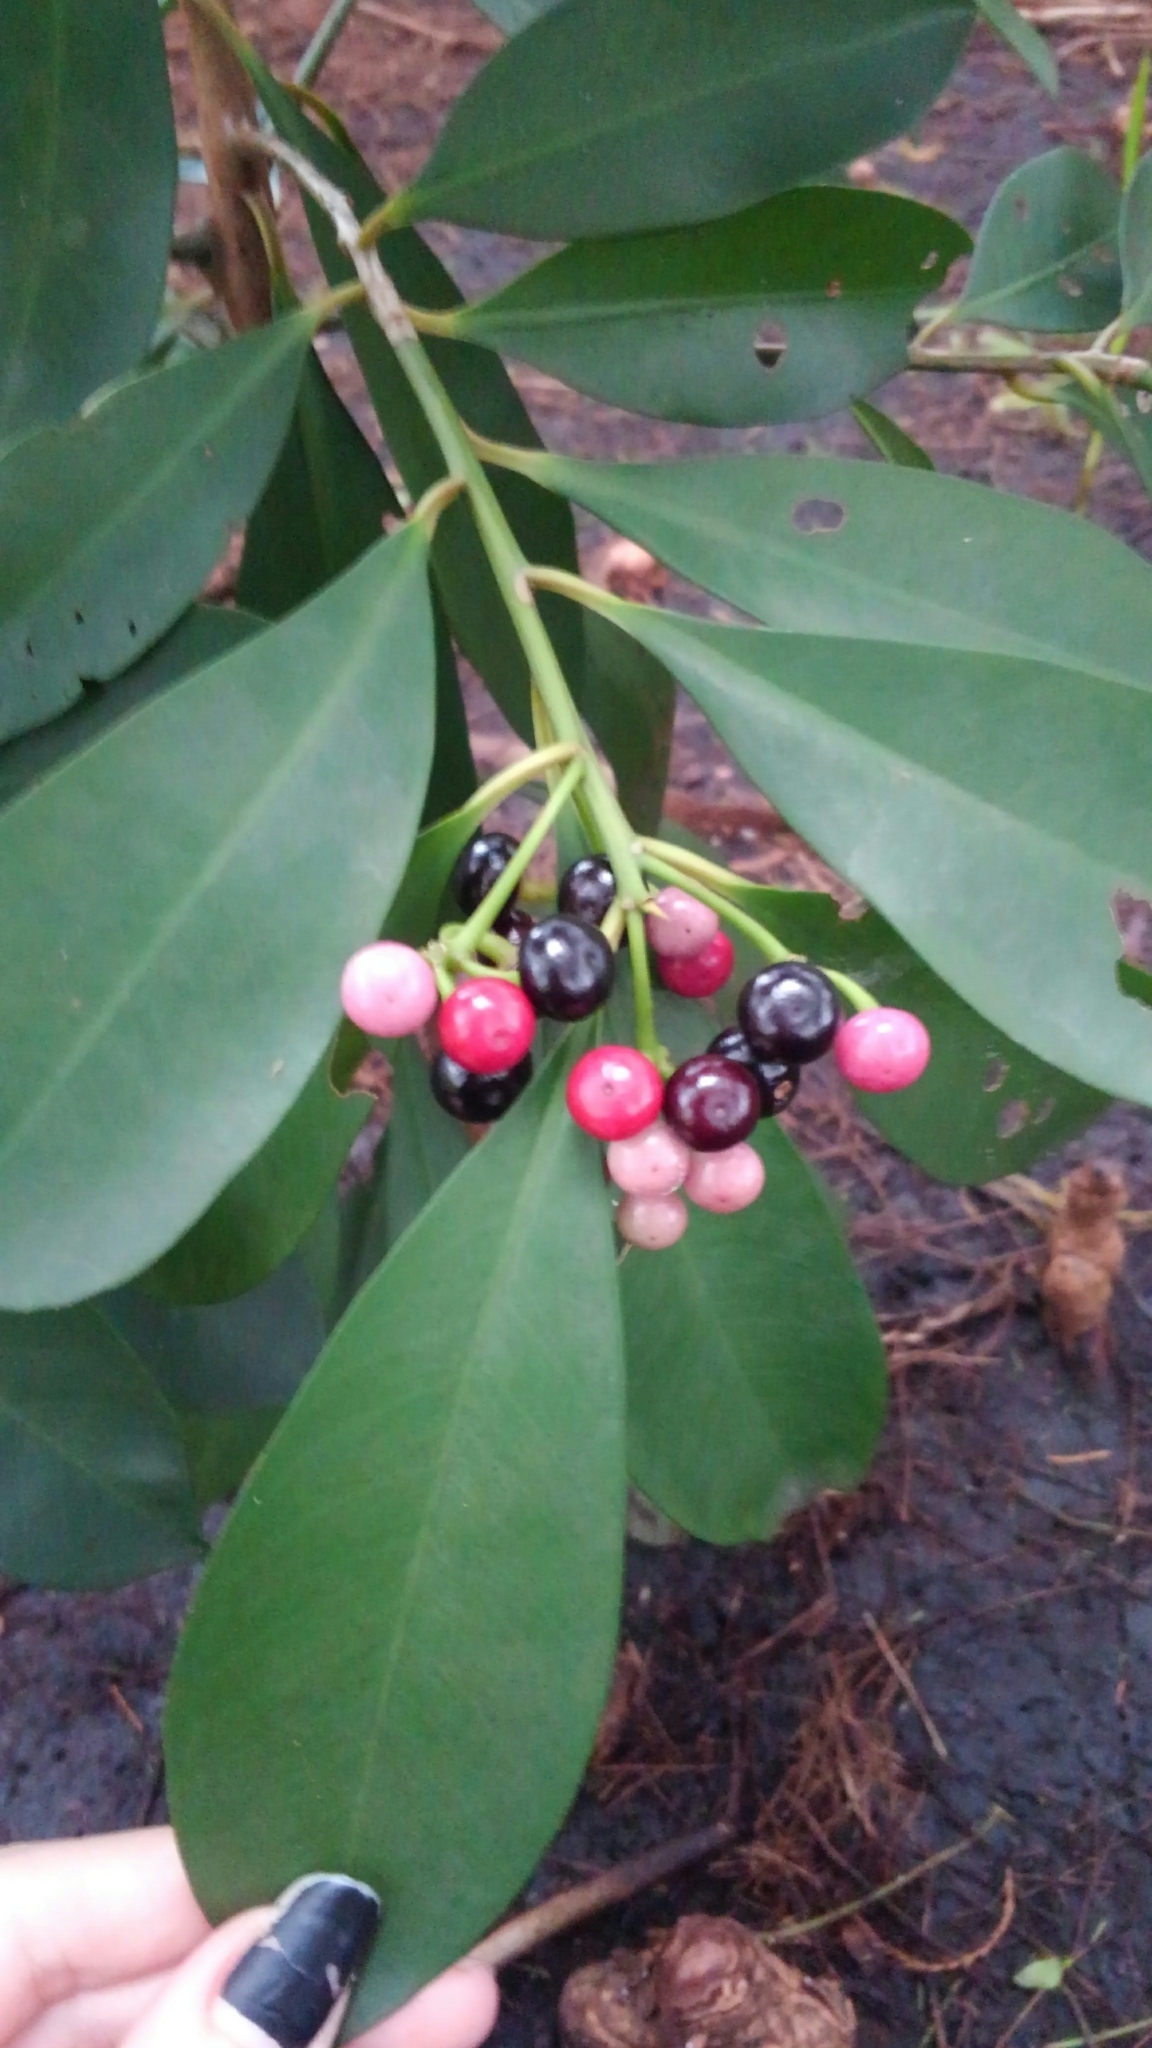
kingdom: Plantae
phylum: Tracheophyta
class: Magnoliopsida
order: Ericales
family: Primulaceae
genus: Ardisia
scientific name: Ardisia elliptica
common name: Shoebutton
